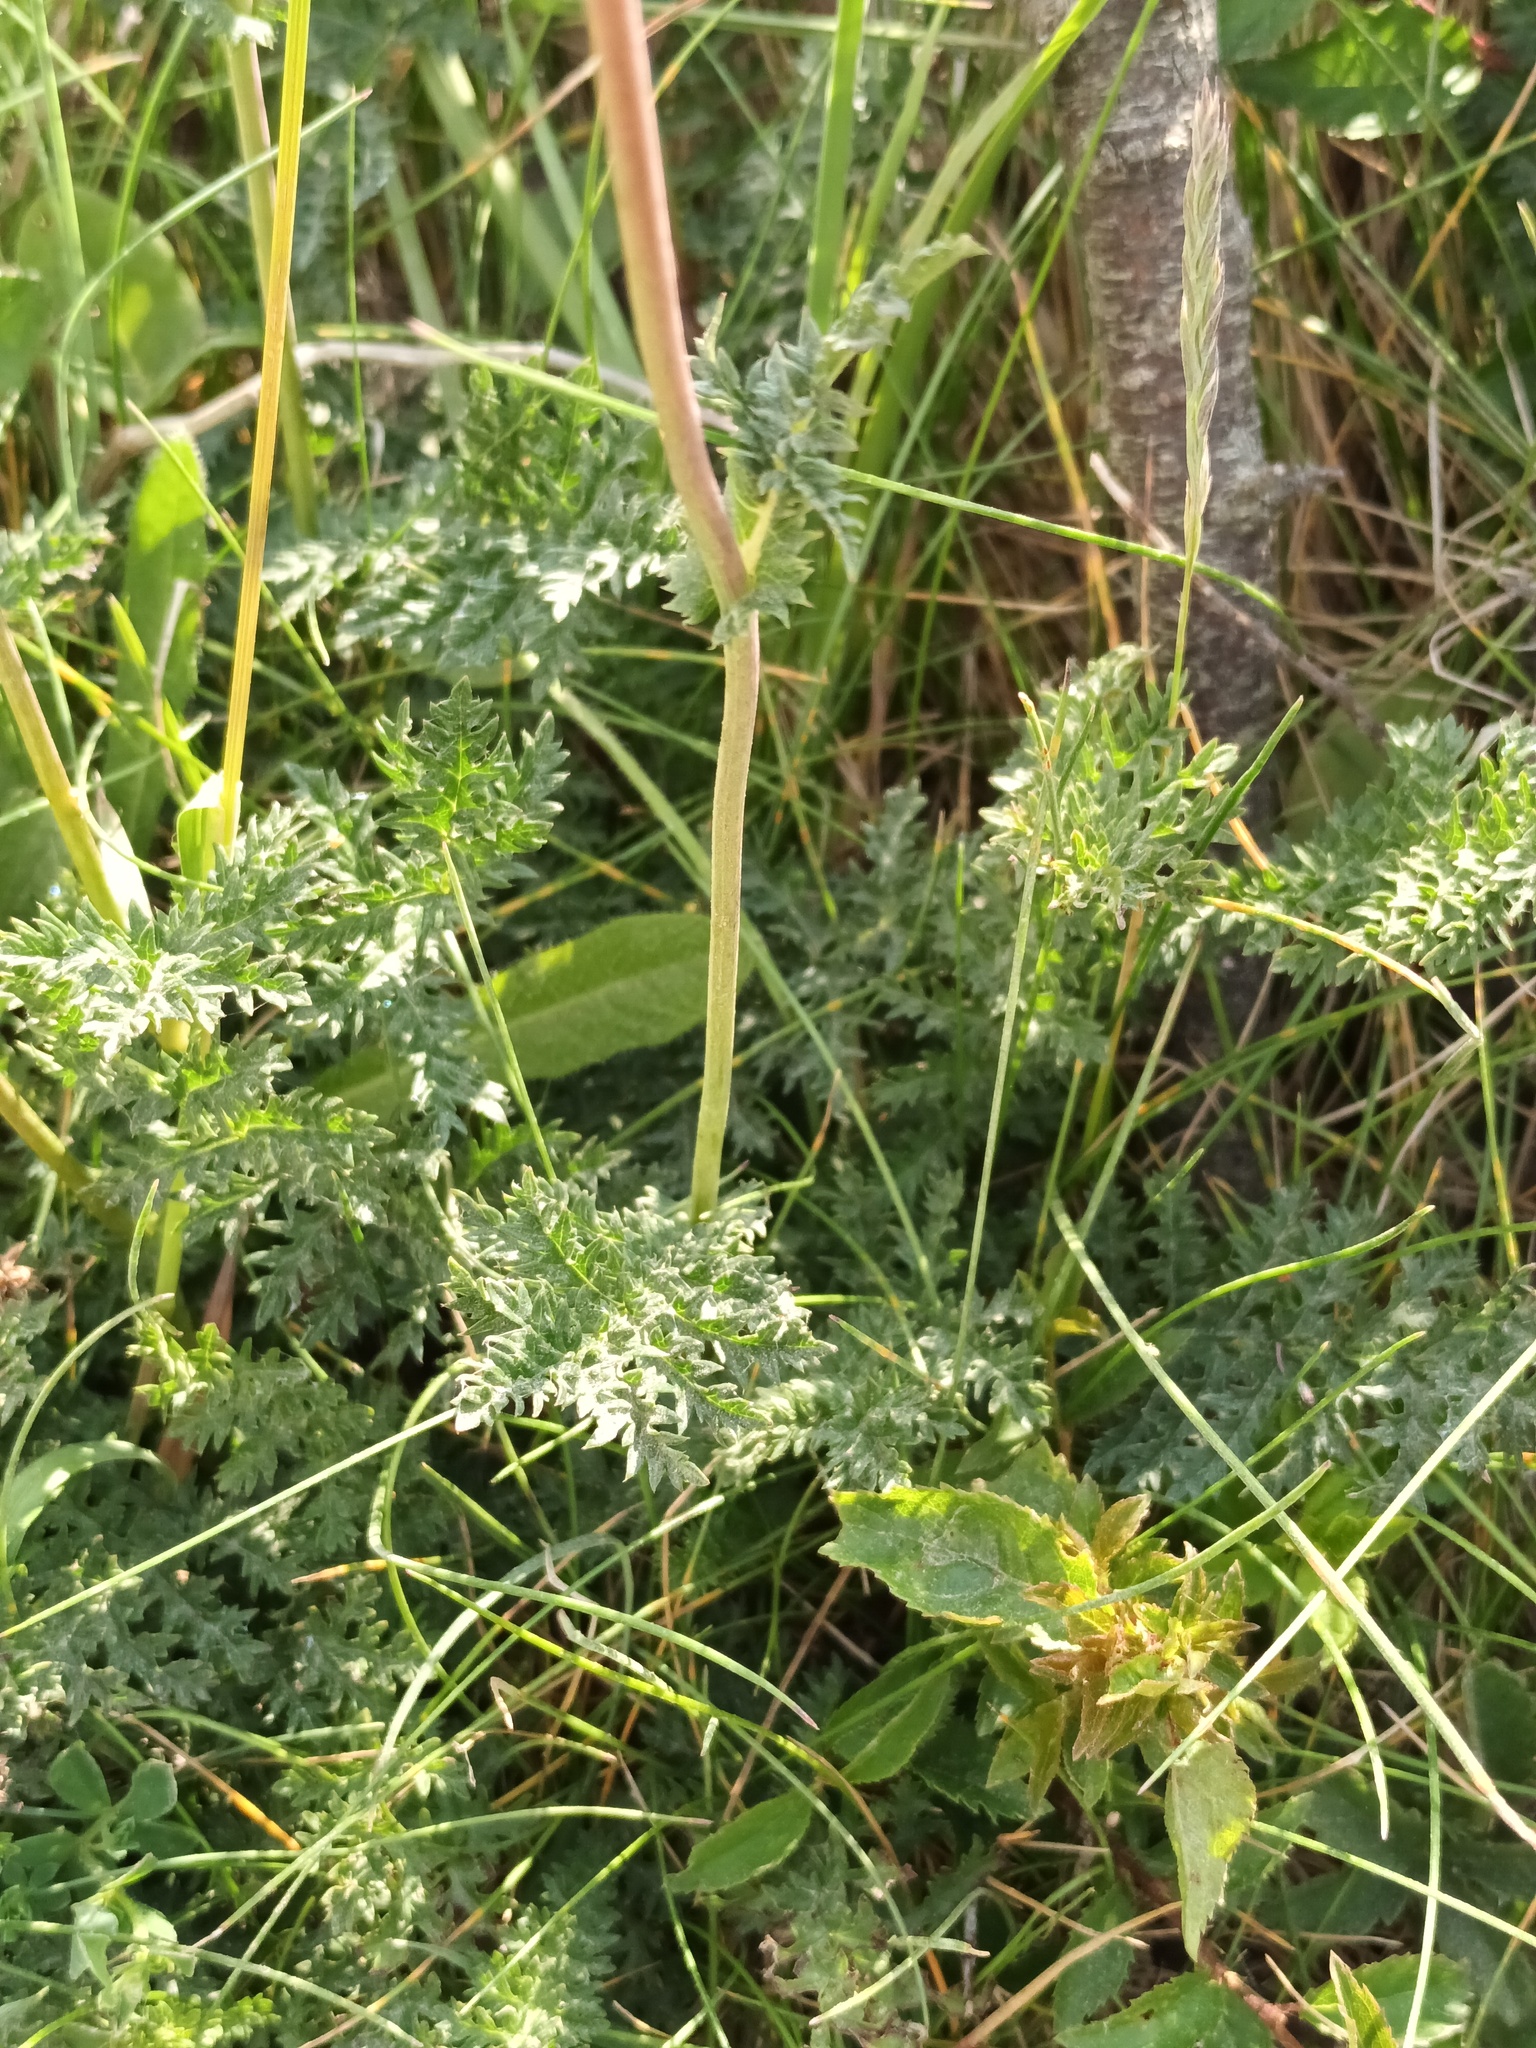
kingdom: Plantae
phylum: Tracheophyta
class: Magnoliopsida
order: Rosales
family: Rosaceae
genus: Filipendula
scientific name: Filipendula vulgaris
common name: Dropwort
